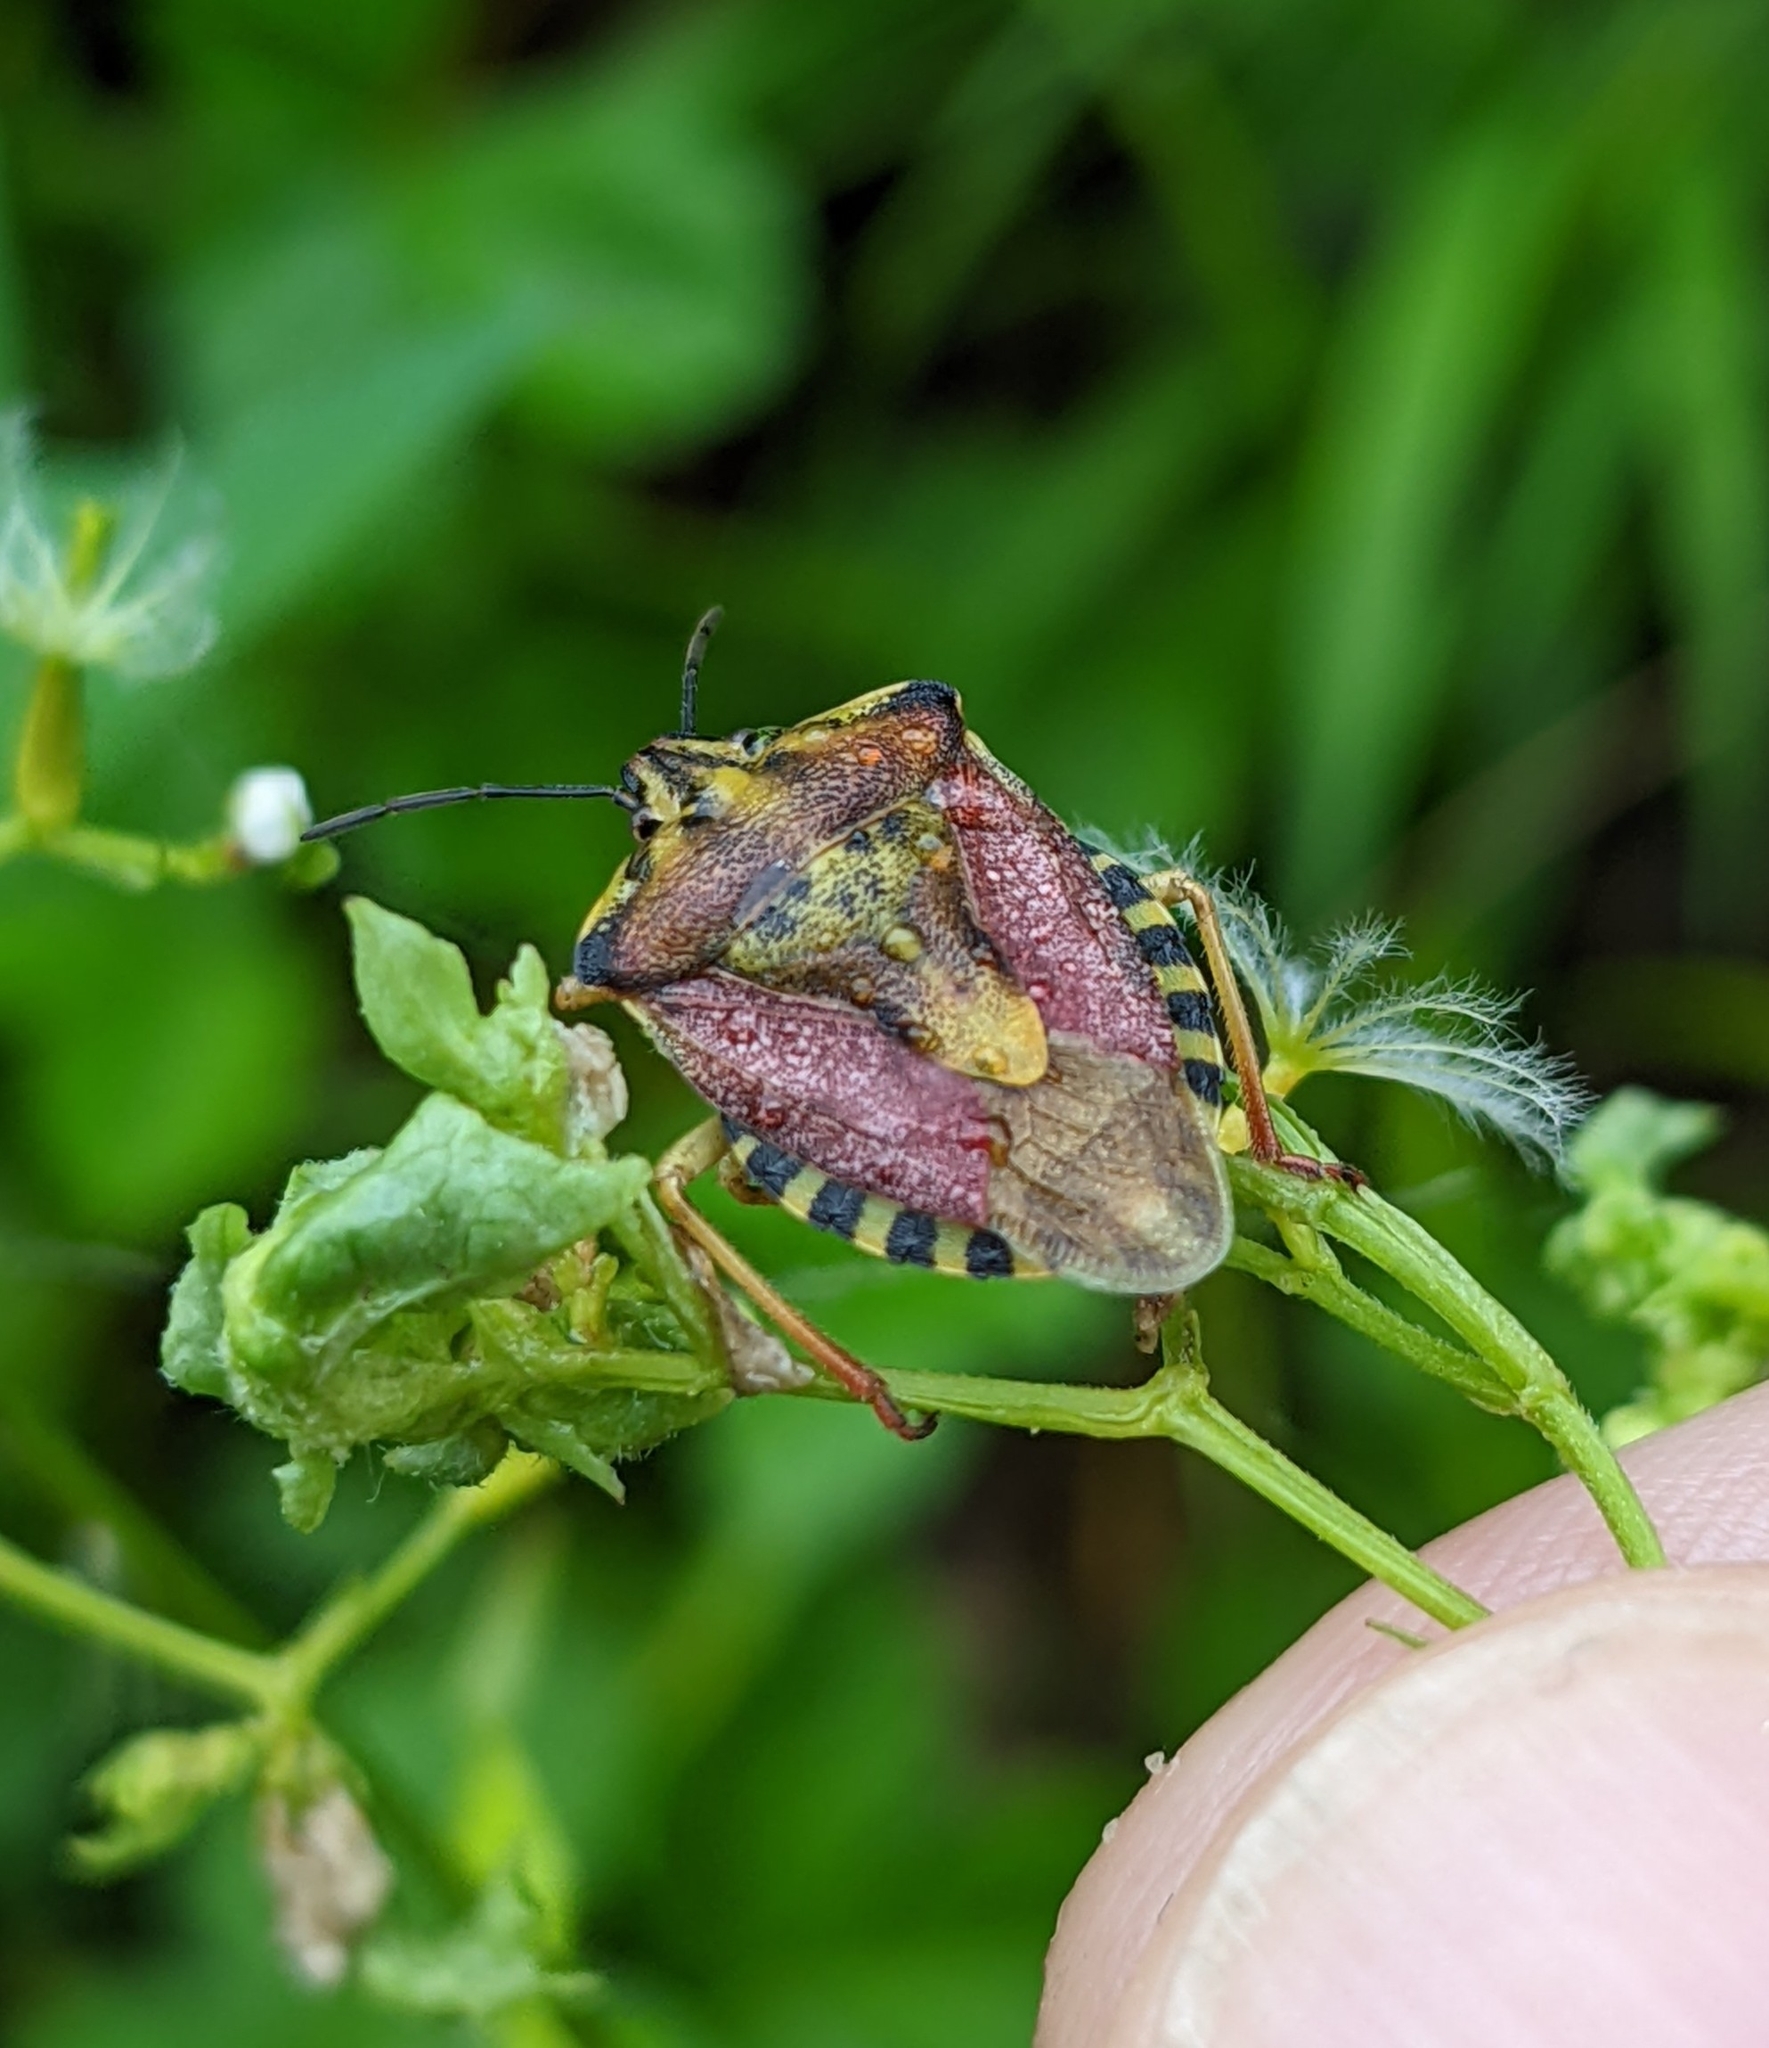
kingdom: Animalia
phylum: Arthropoda
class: Insecta
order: Hemiptera
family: Pentatomidae
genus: Carpocoris
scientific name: Carpocoris purpureipennis
